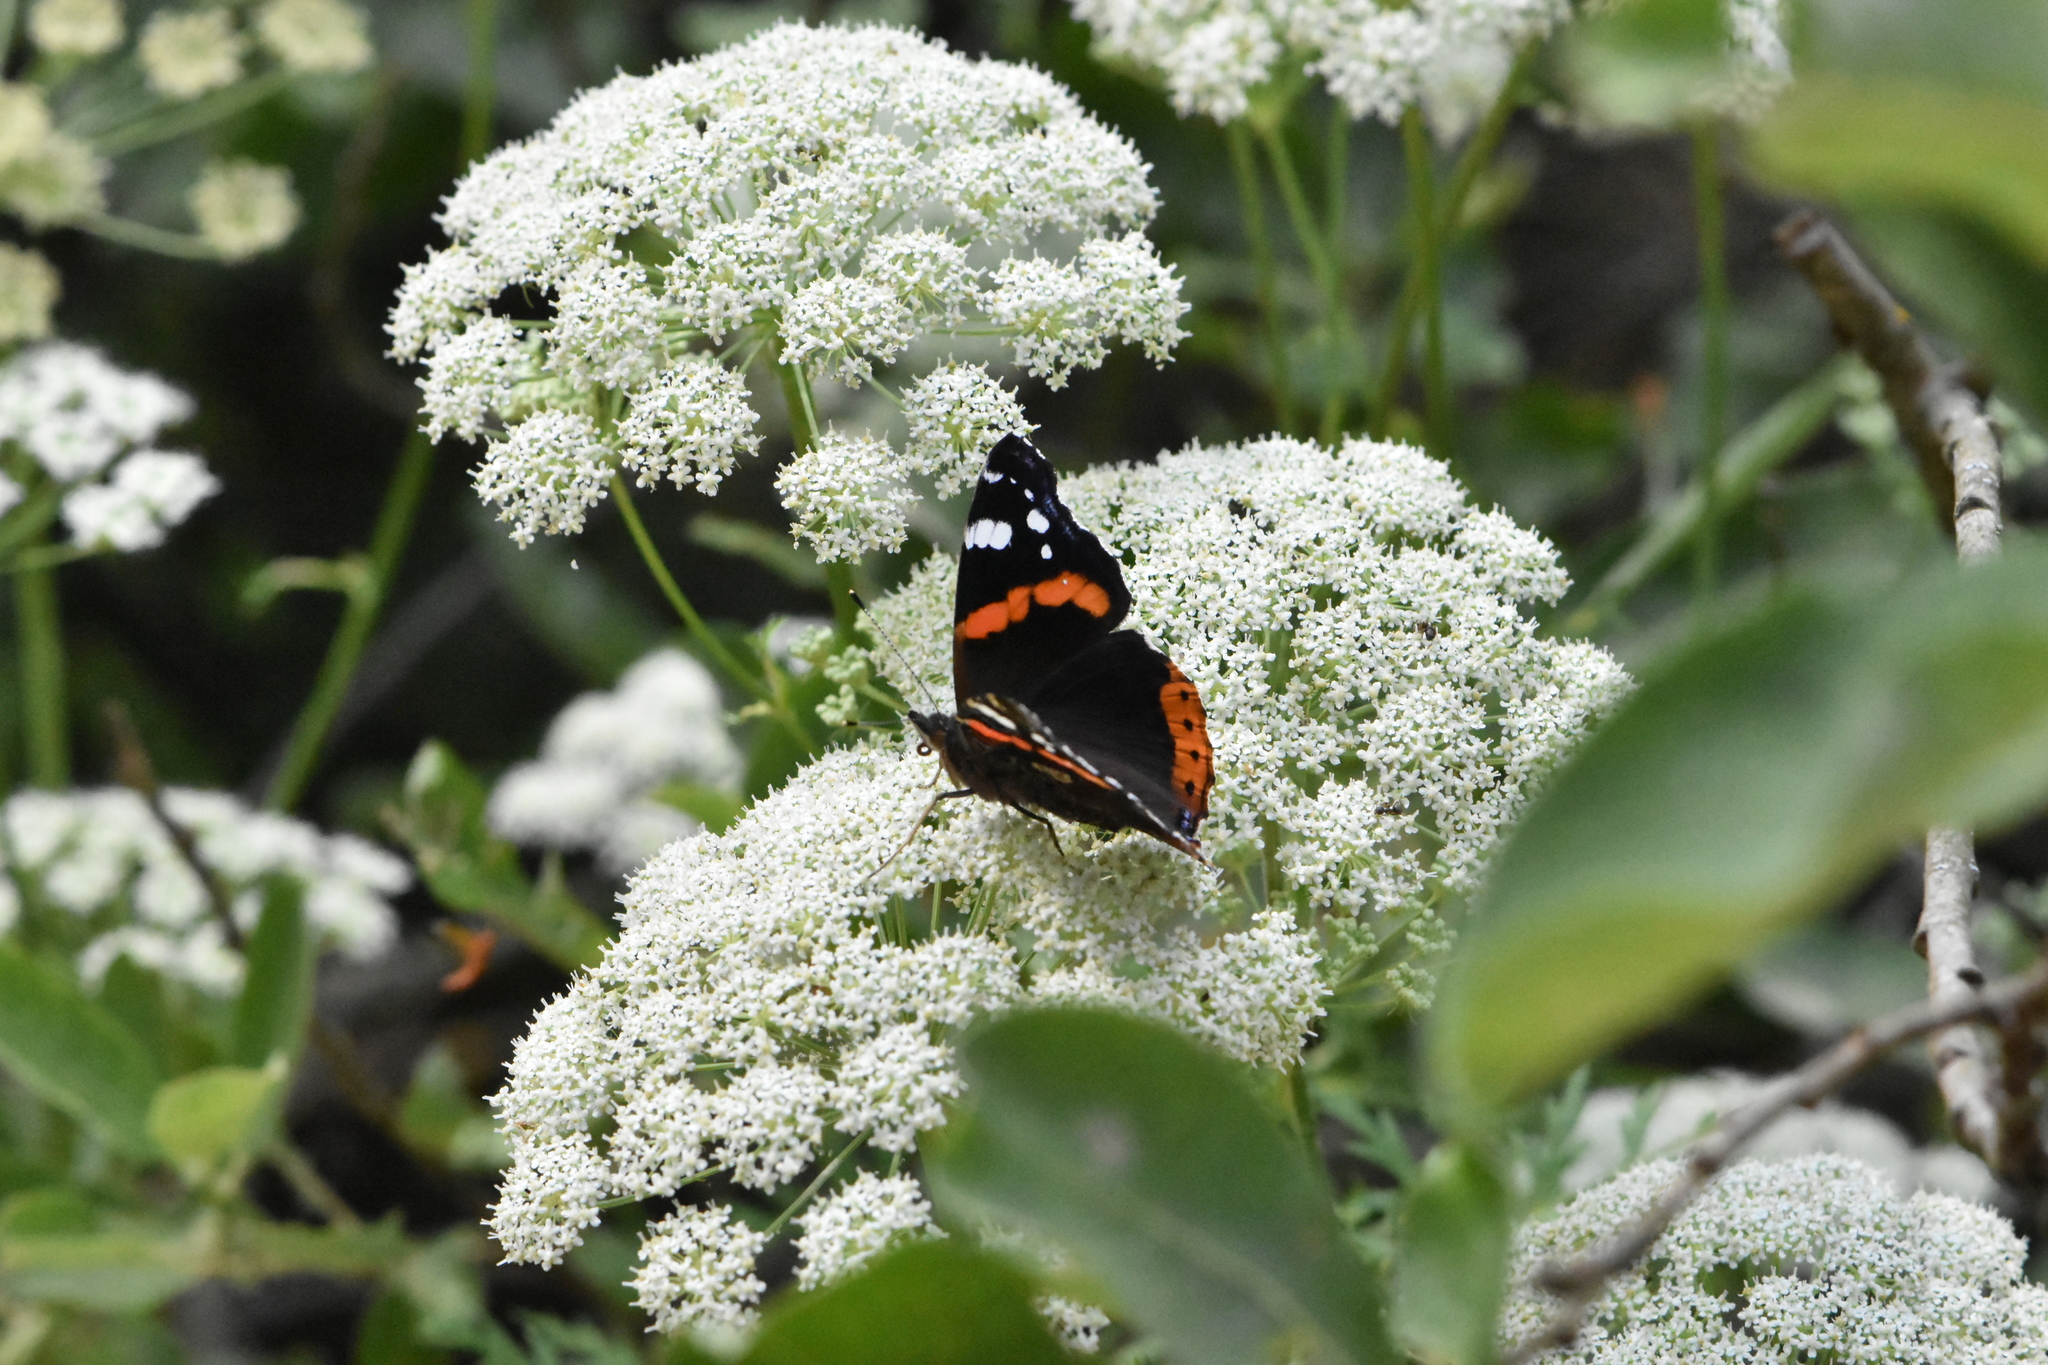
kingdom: Animalia
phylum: Arthropoda
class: Insecta
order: Lepidoptera
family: Nymphalidae
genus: Vanessa
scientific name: Vanessa atalanta
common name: Red admiral
